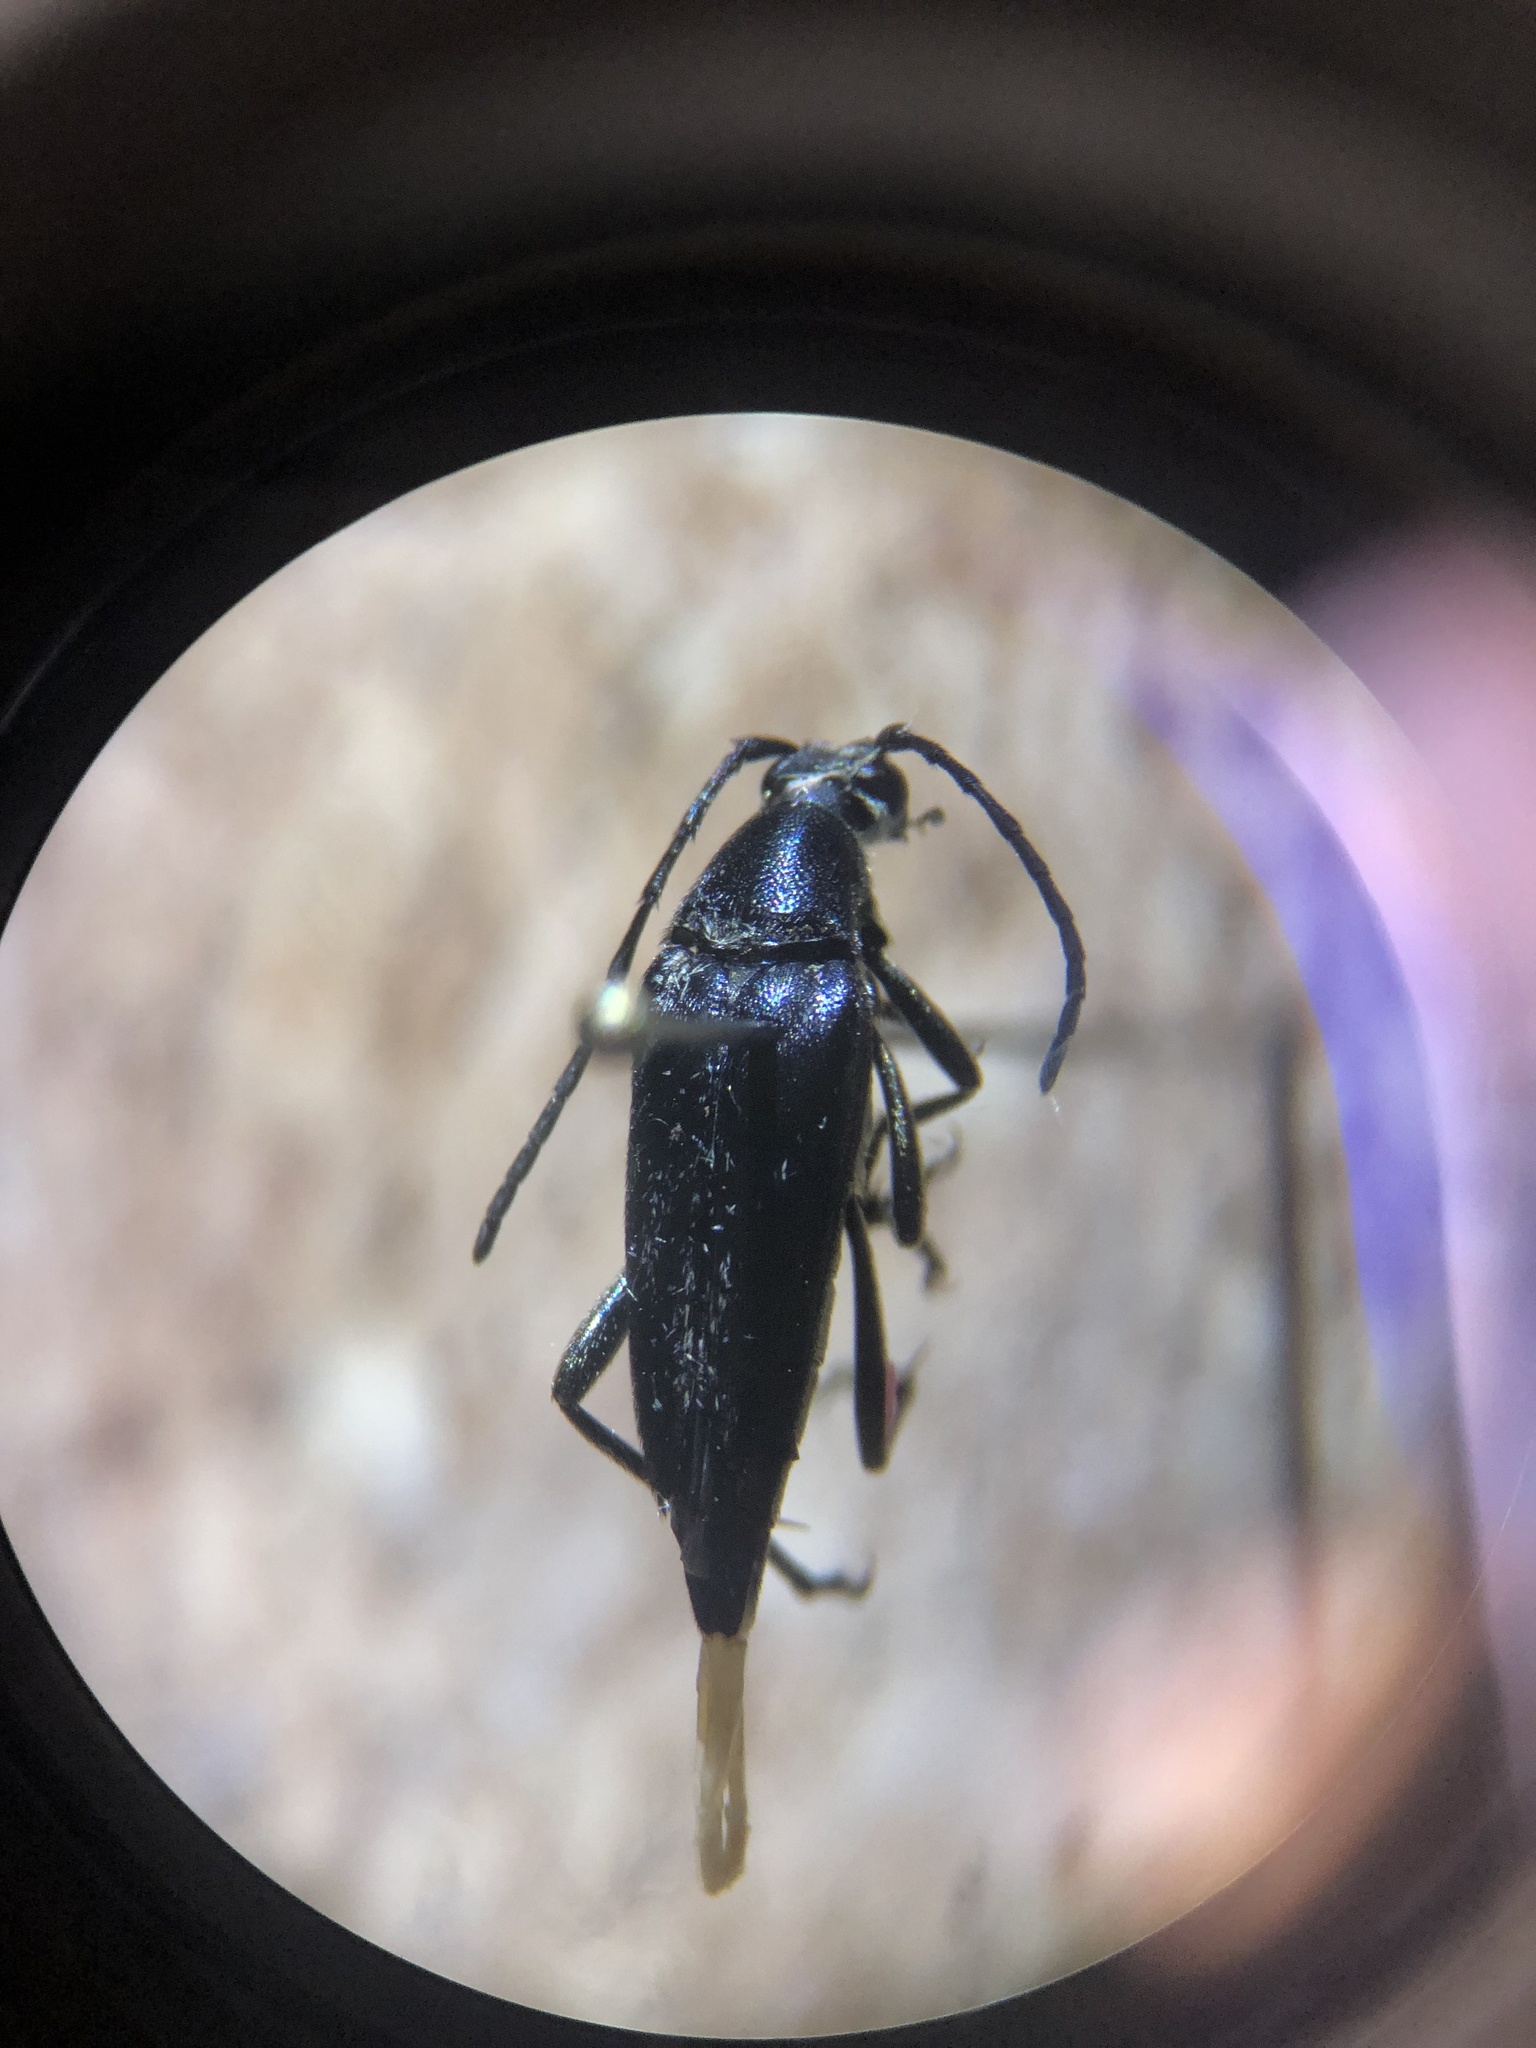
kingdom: Animalia
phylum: Arthropoda
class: Insecta
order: Coleoptera
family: Cerambycidae
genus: Typocerus
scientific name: Typocerus lugubris
